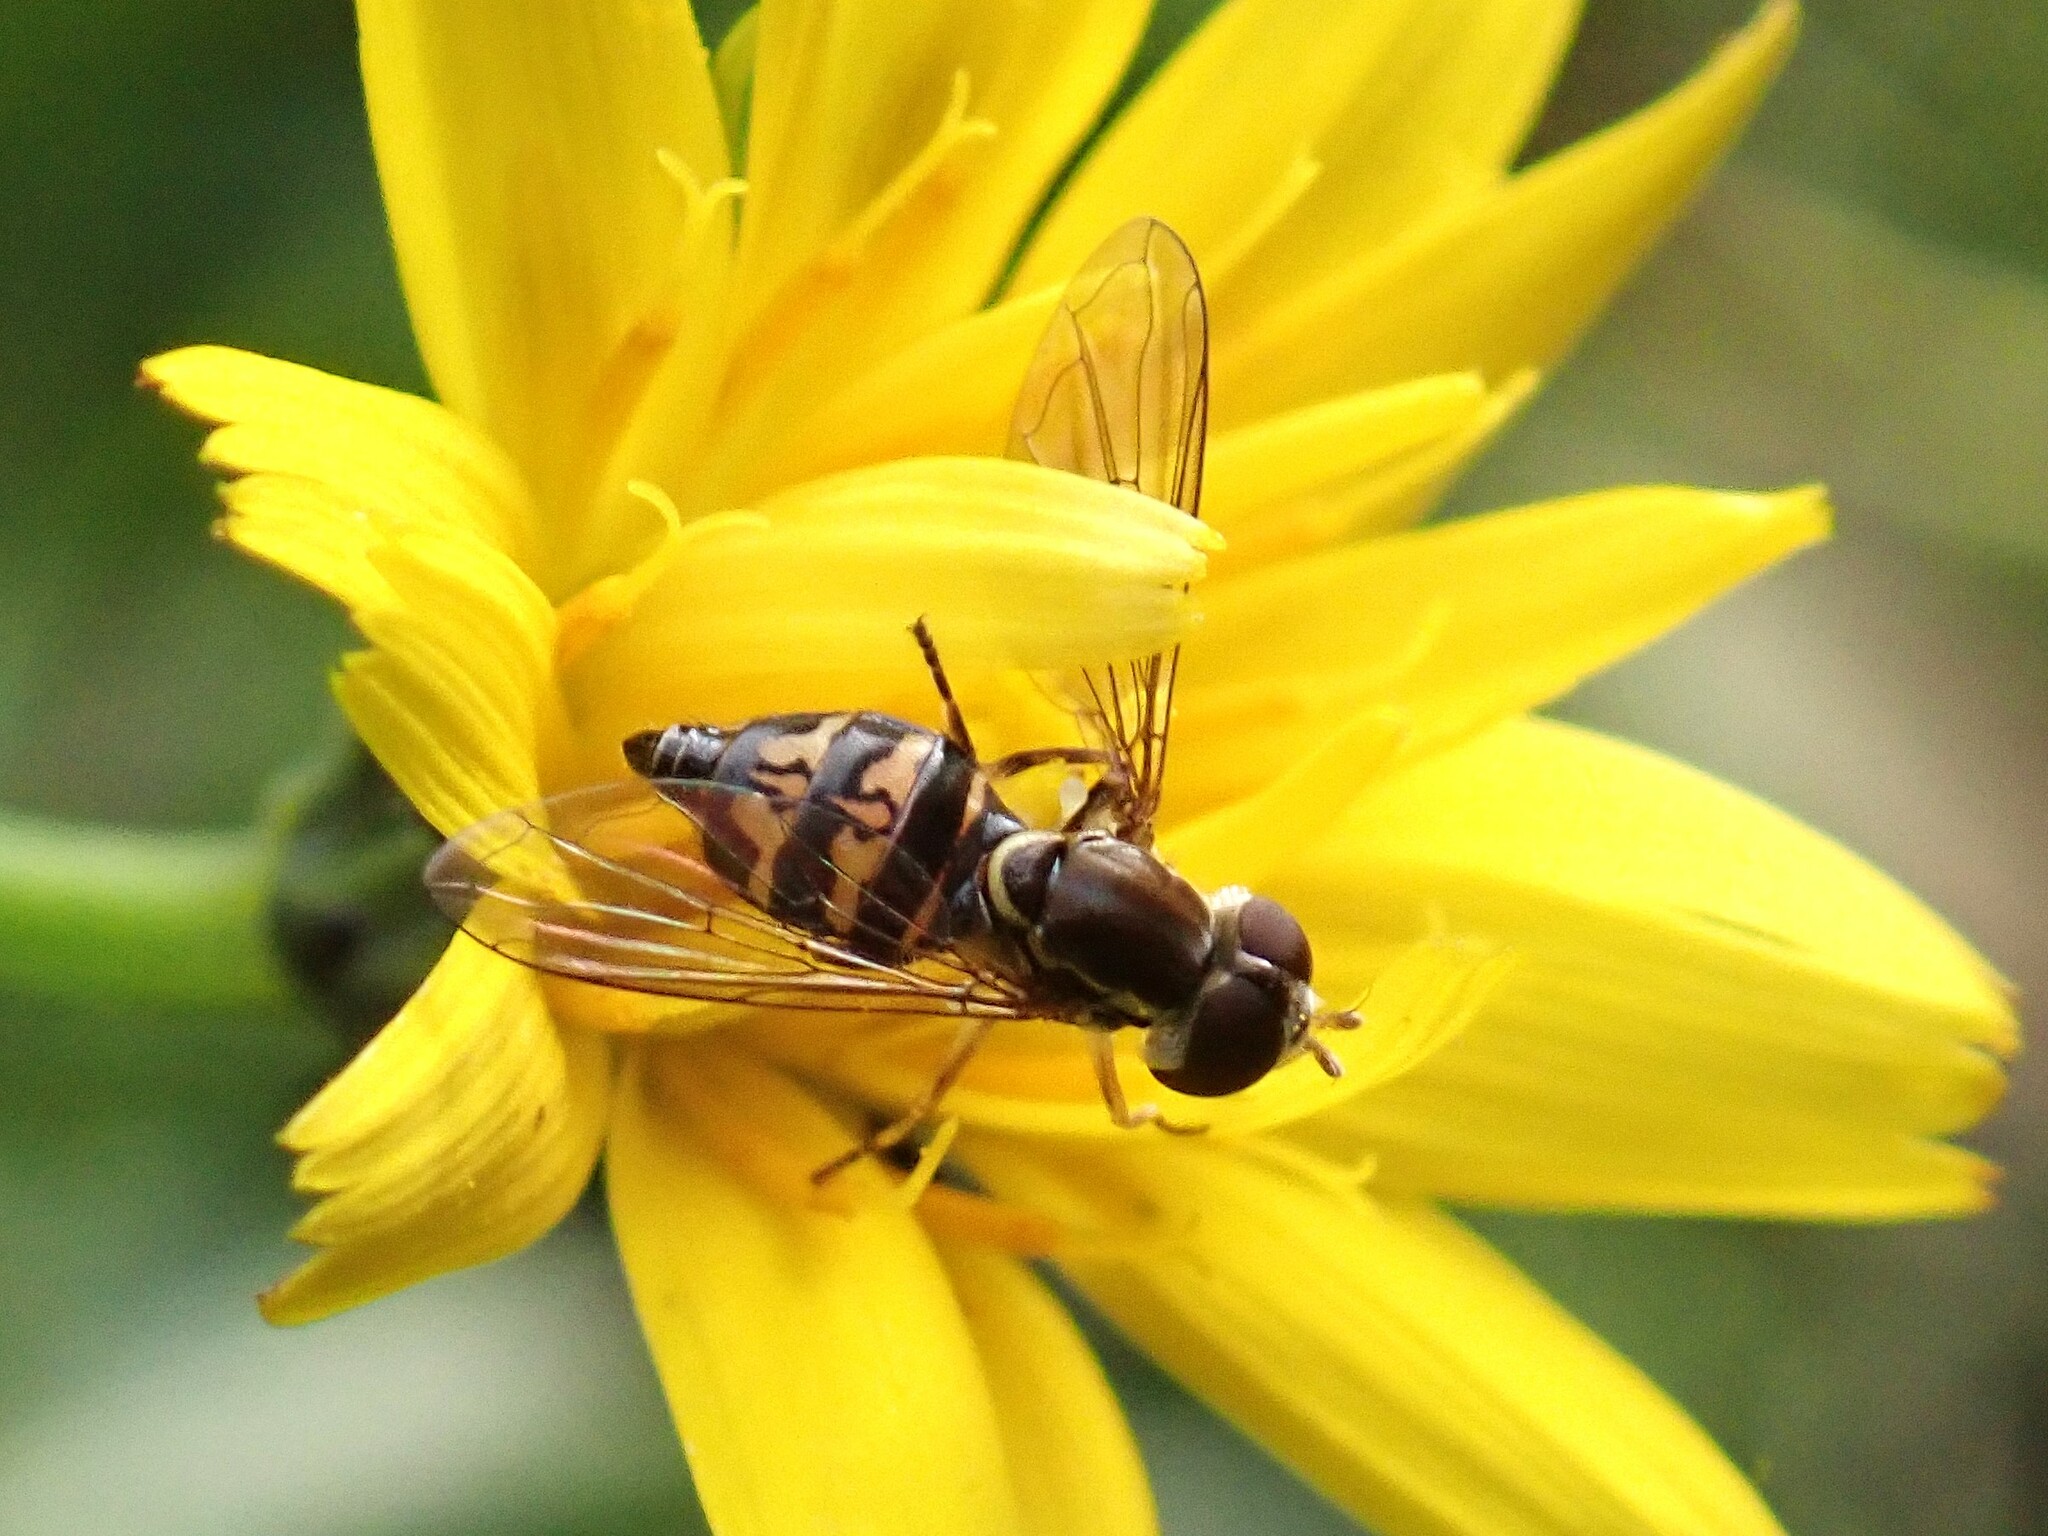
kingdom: Animalia
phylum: Arthropoda
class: Insecta
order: Diptera
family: Syrphidae
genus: Toxomerus
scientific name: Toxomerus occidentalis
